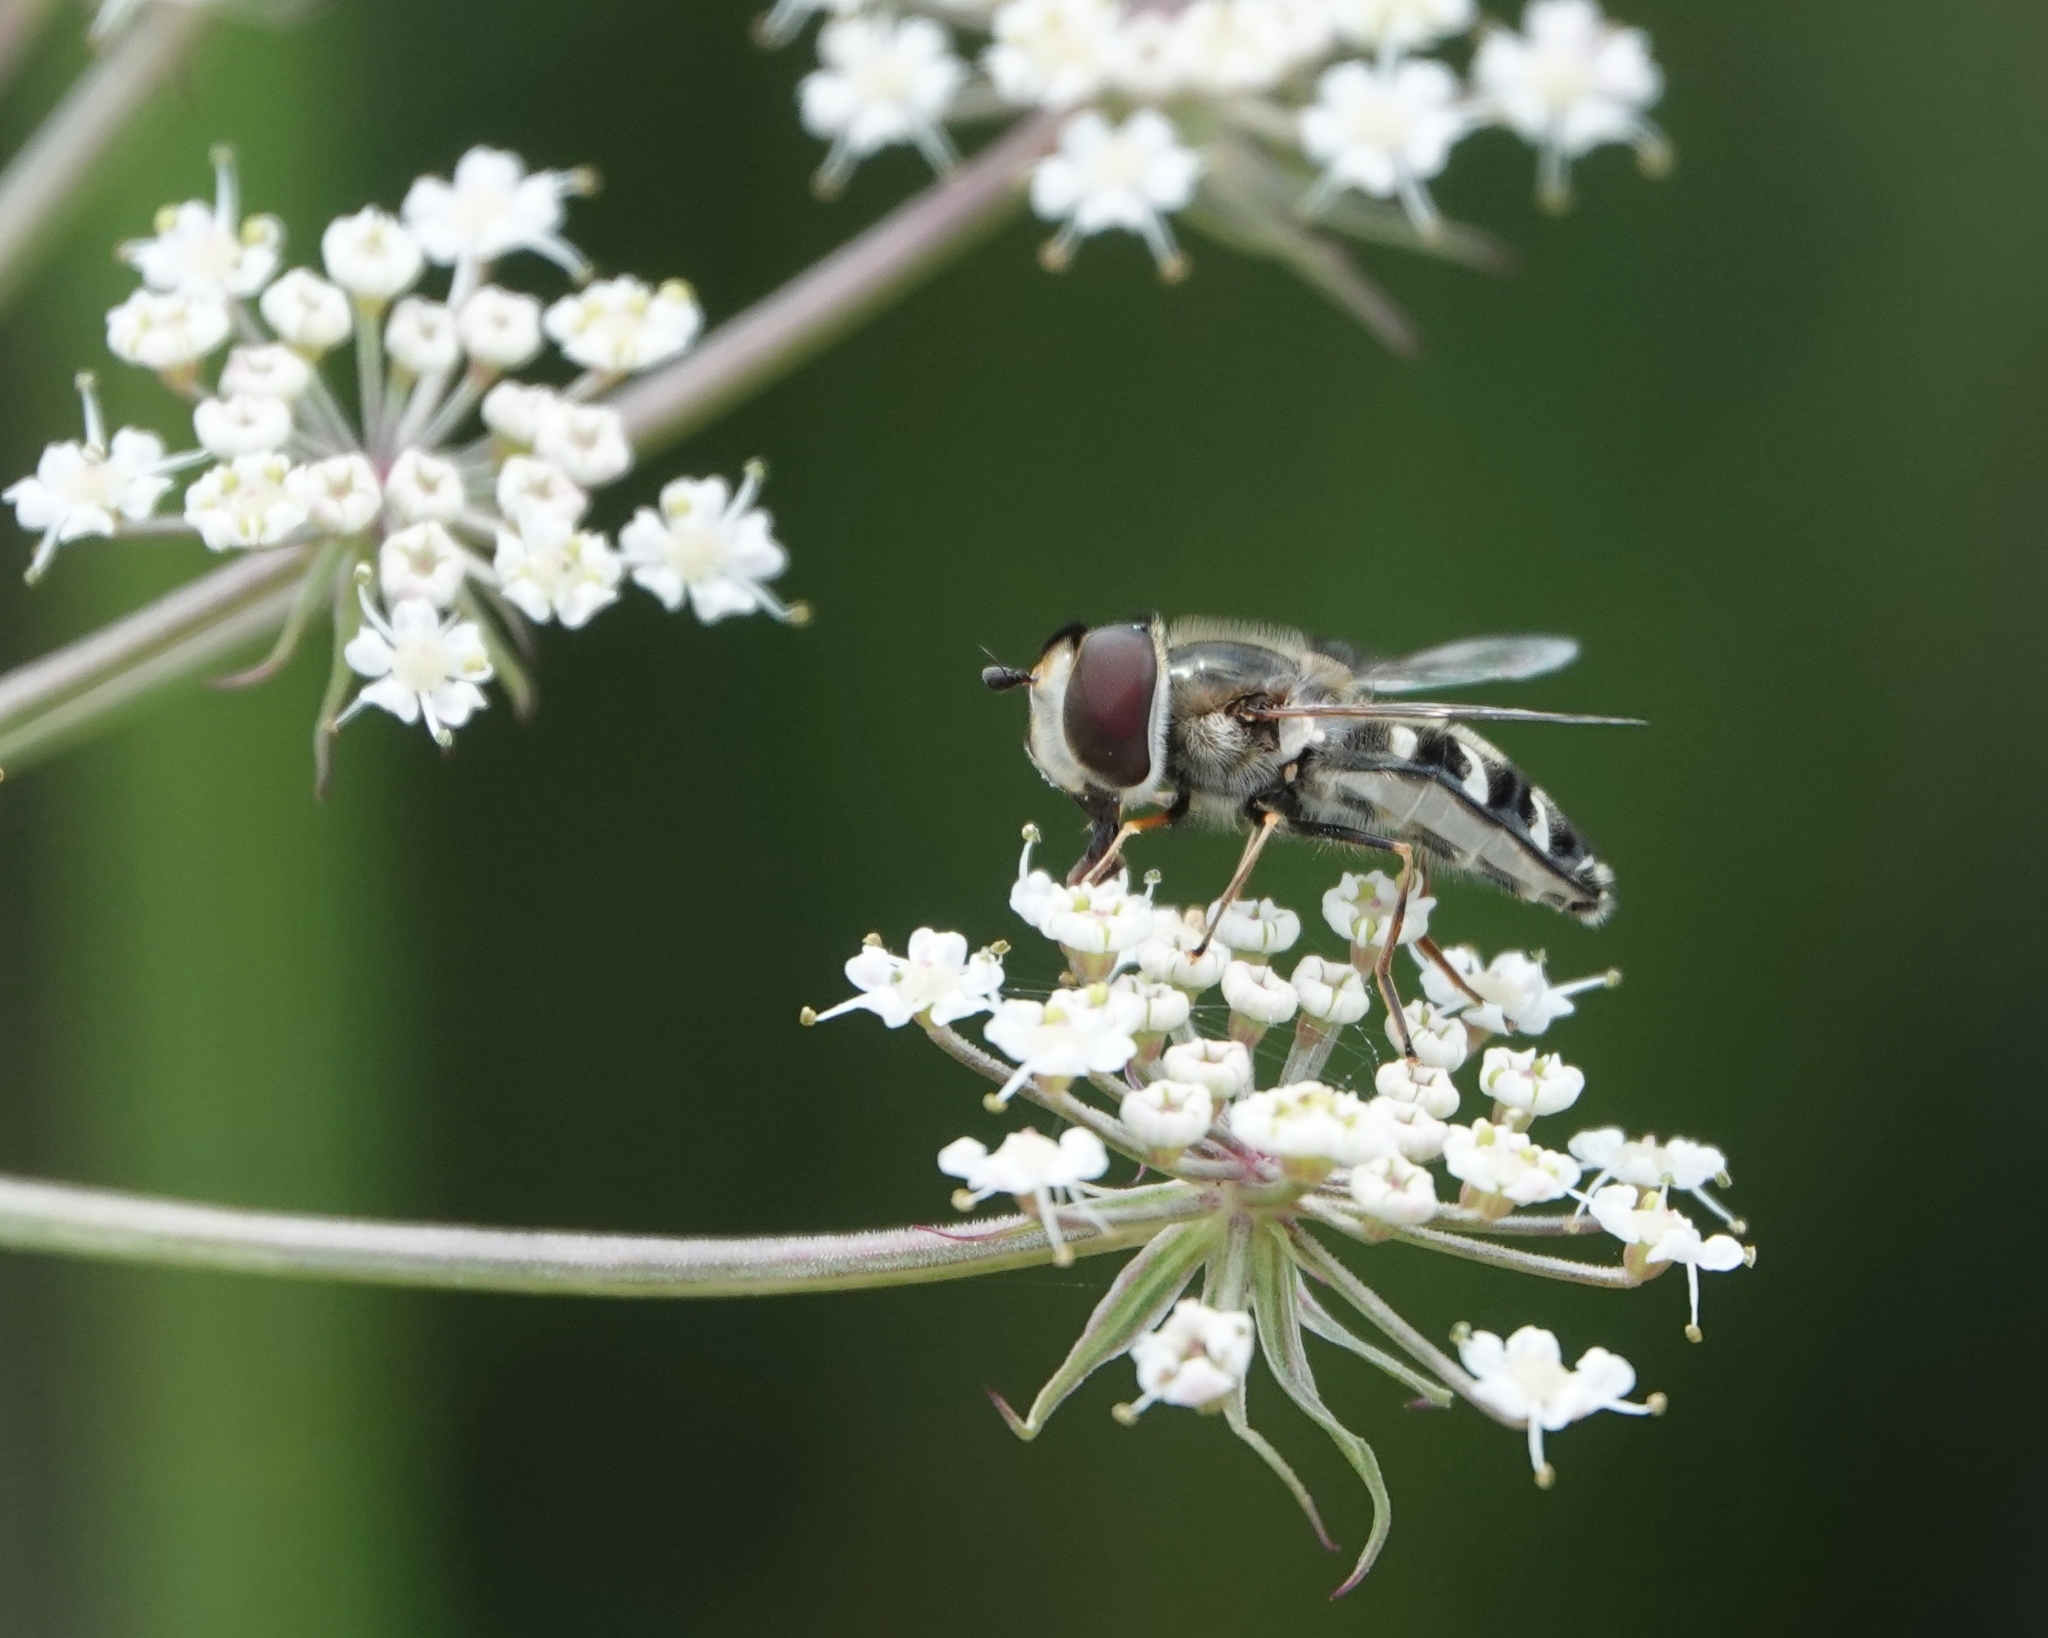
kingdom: Animalia
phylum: Arthropoda
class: Insecta
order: Diptera
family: Syrphidae
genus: Scaeva
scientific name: Scaeva pyrastri
